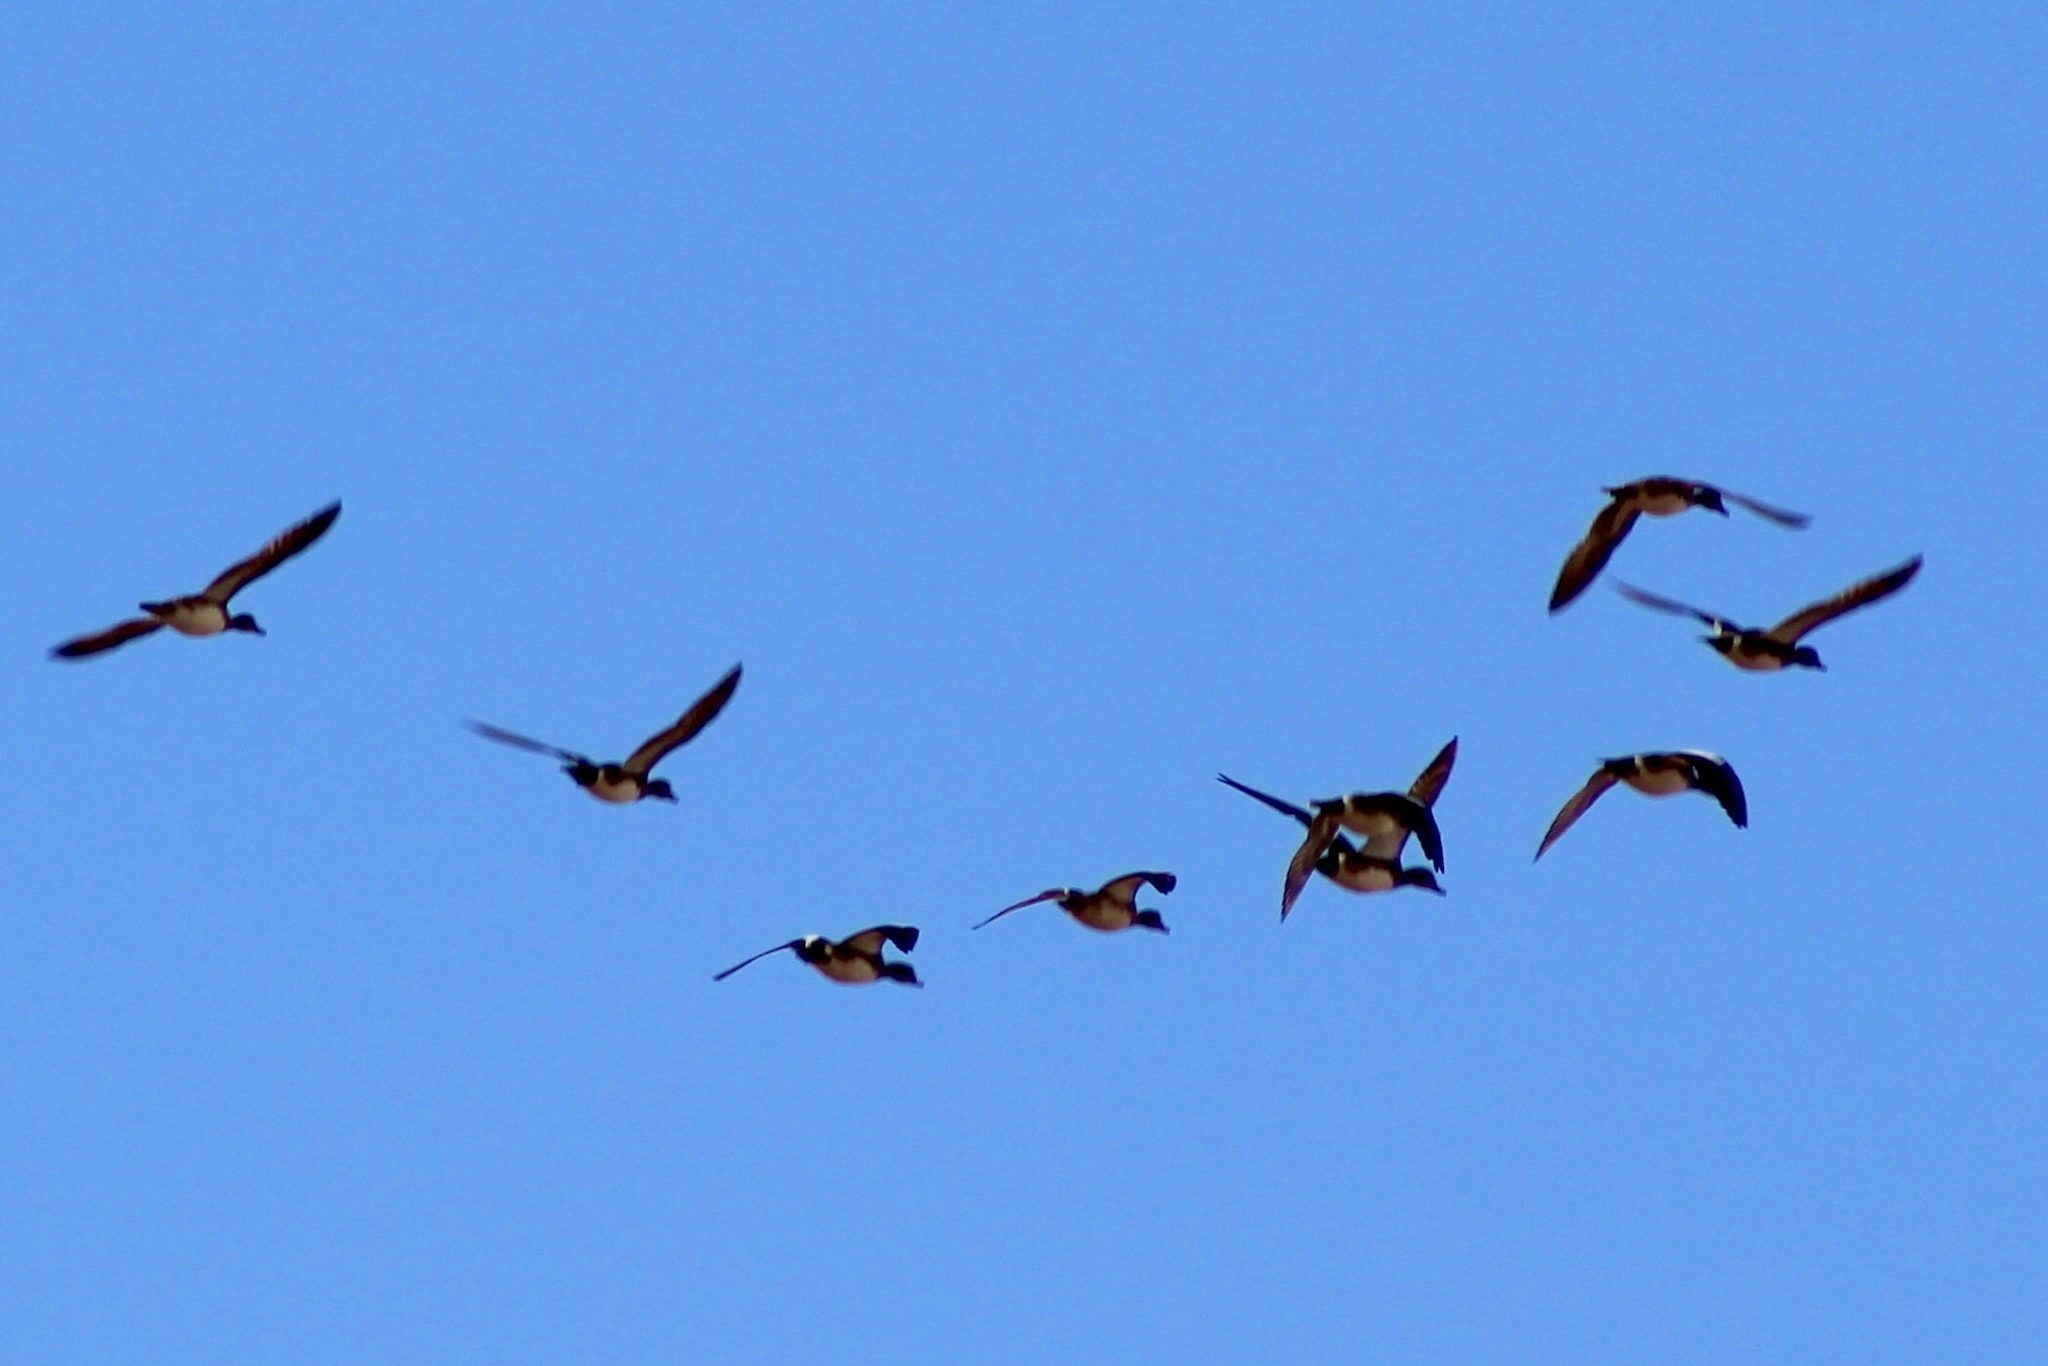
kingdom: Animalia
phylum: Chordata
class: Aves
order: Anseriformes
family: Anatidae
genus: Mareca
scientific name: Mareca americana
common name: American wigeon
